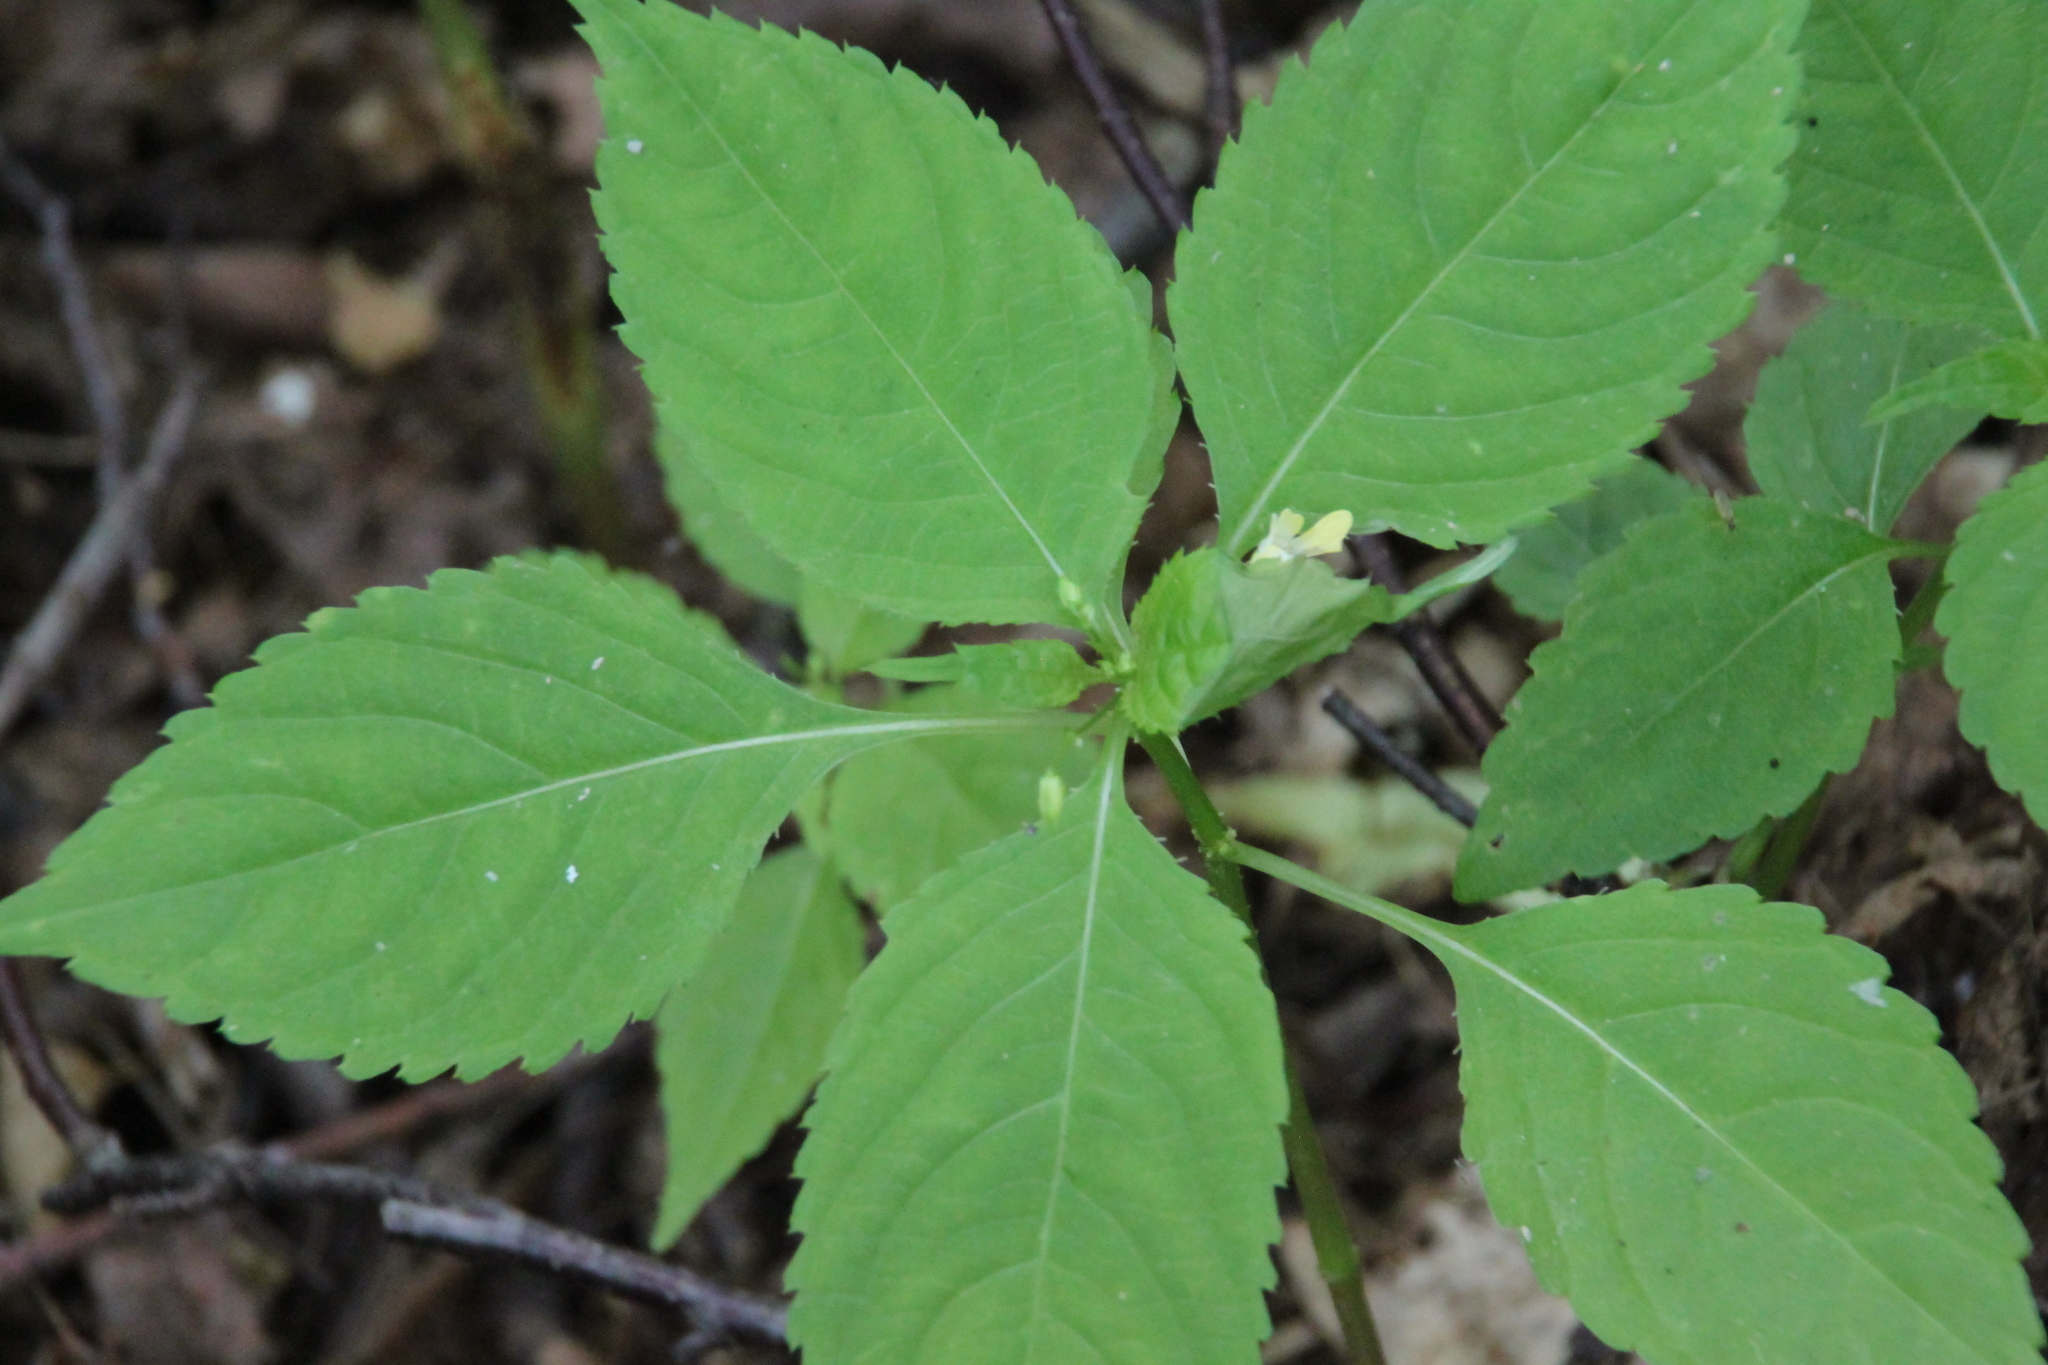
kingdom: Plantae
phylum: Tracheophyta
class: Magnoliopsida
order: Ericales
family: Balsaminaceae
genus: Impatiens
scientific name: Impatiens parviflora
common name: Small balsam
